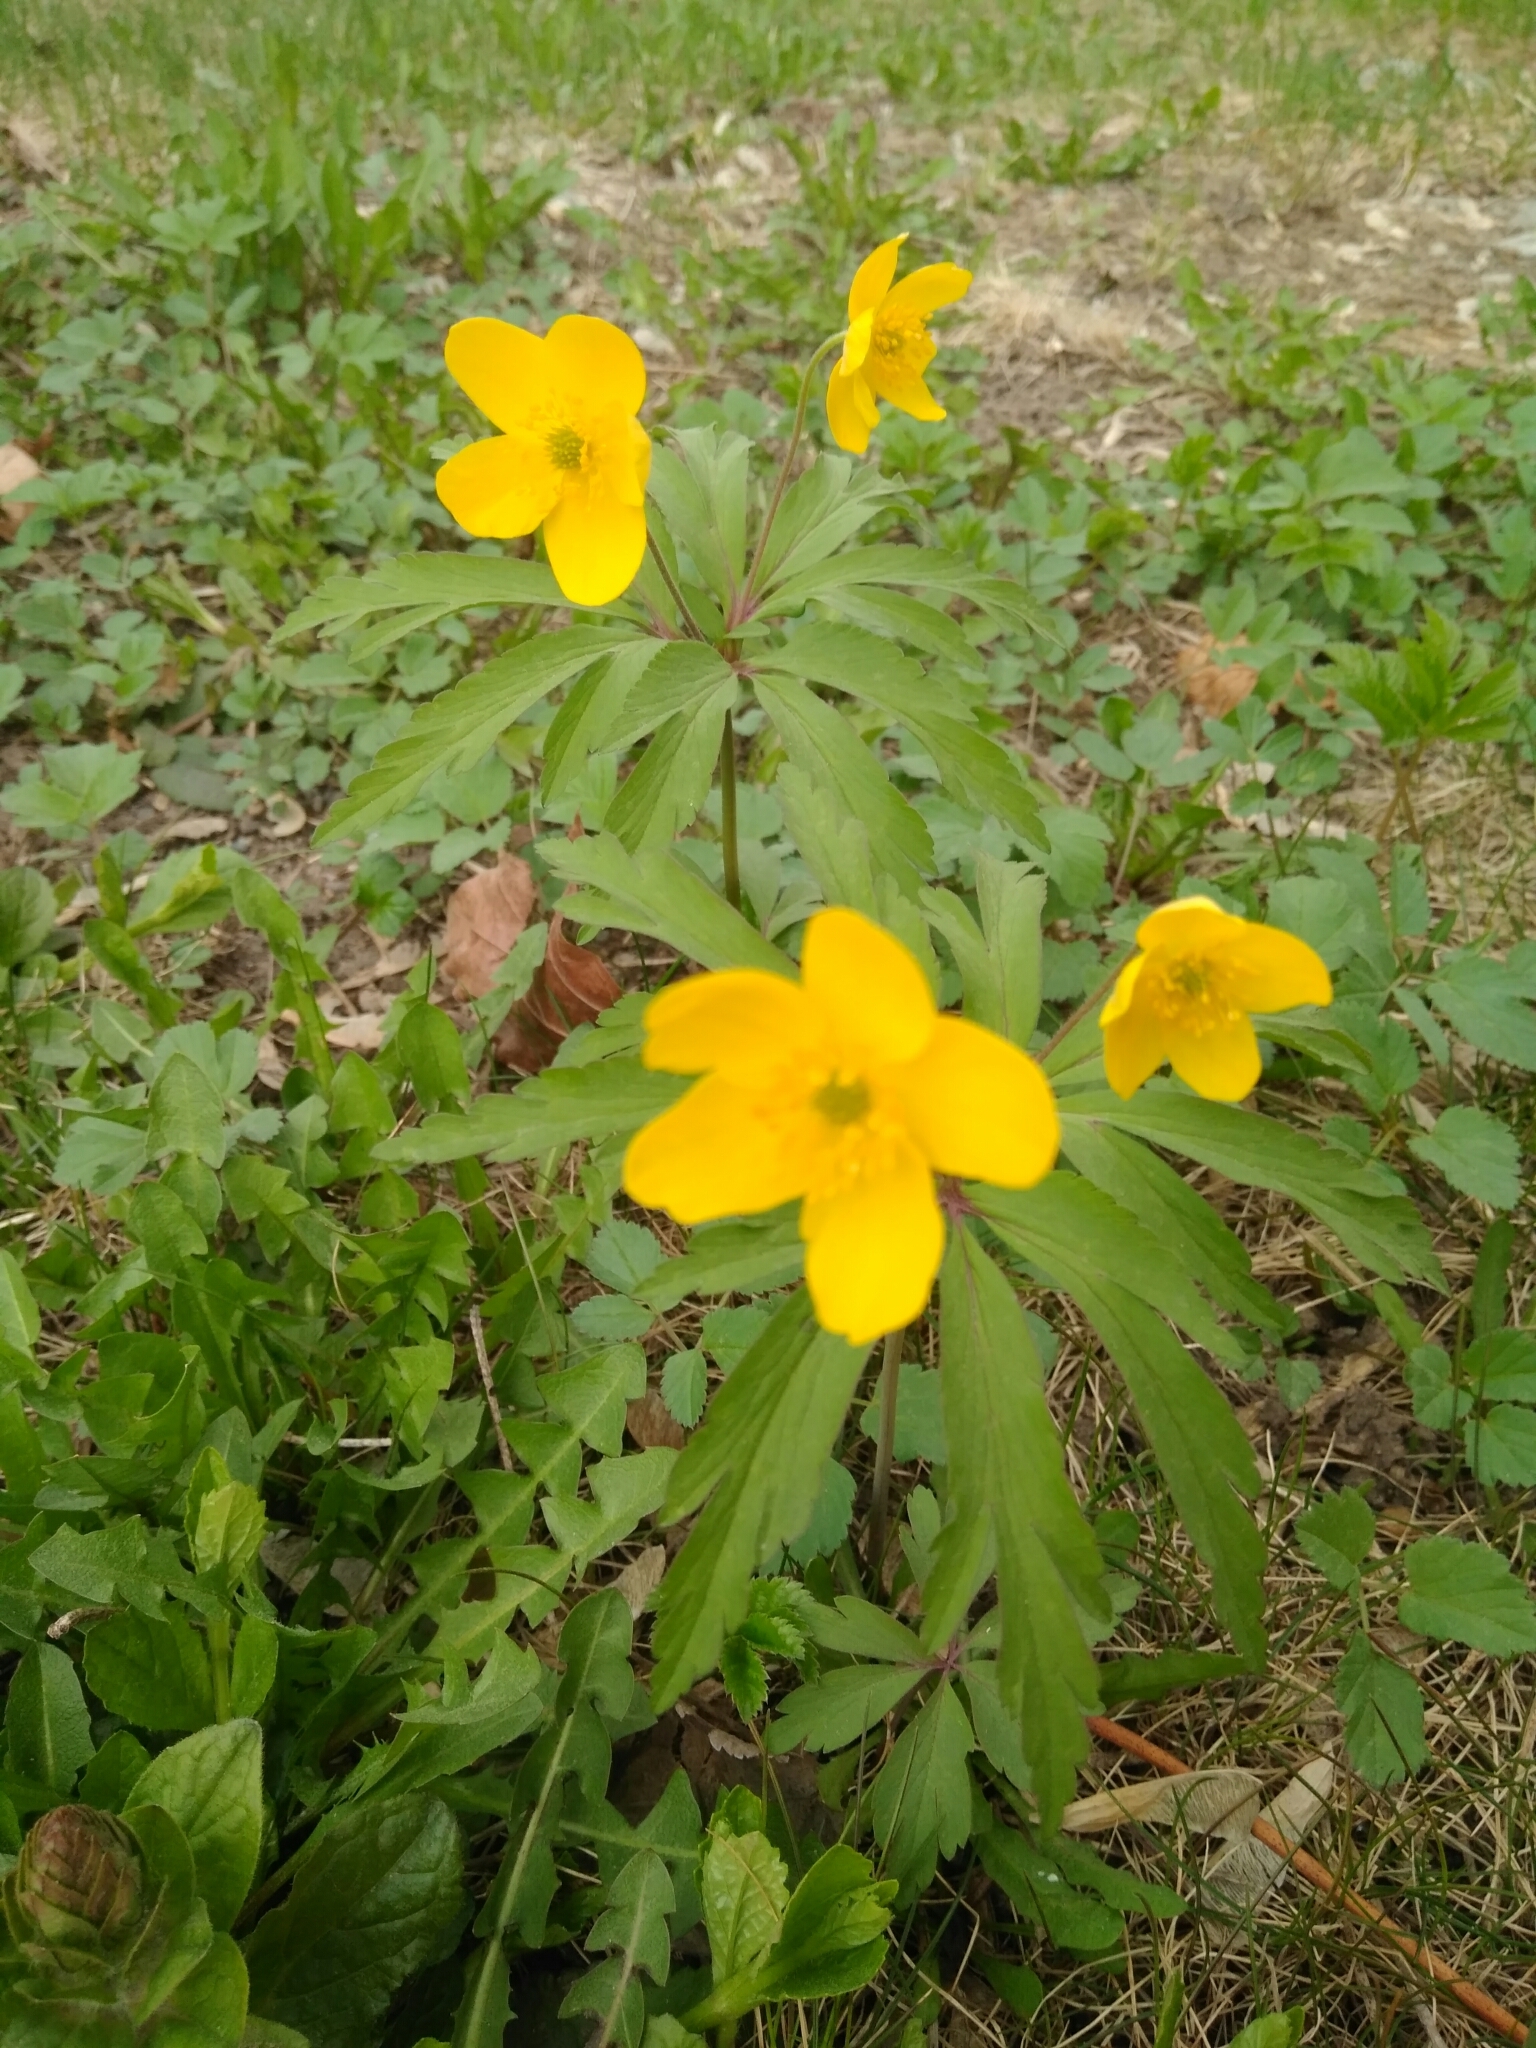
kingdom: Plantae
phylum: Tracheophyta
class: Magnoliopsida
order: Ranunculales
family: Ranunculaceae
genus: Anemone
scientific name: Anemone ranunculoides
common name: Yellow anemone
